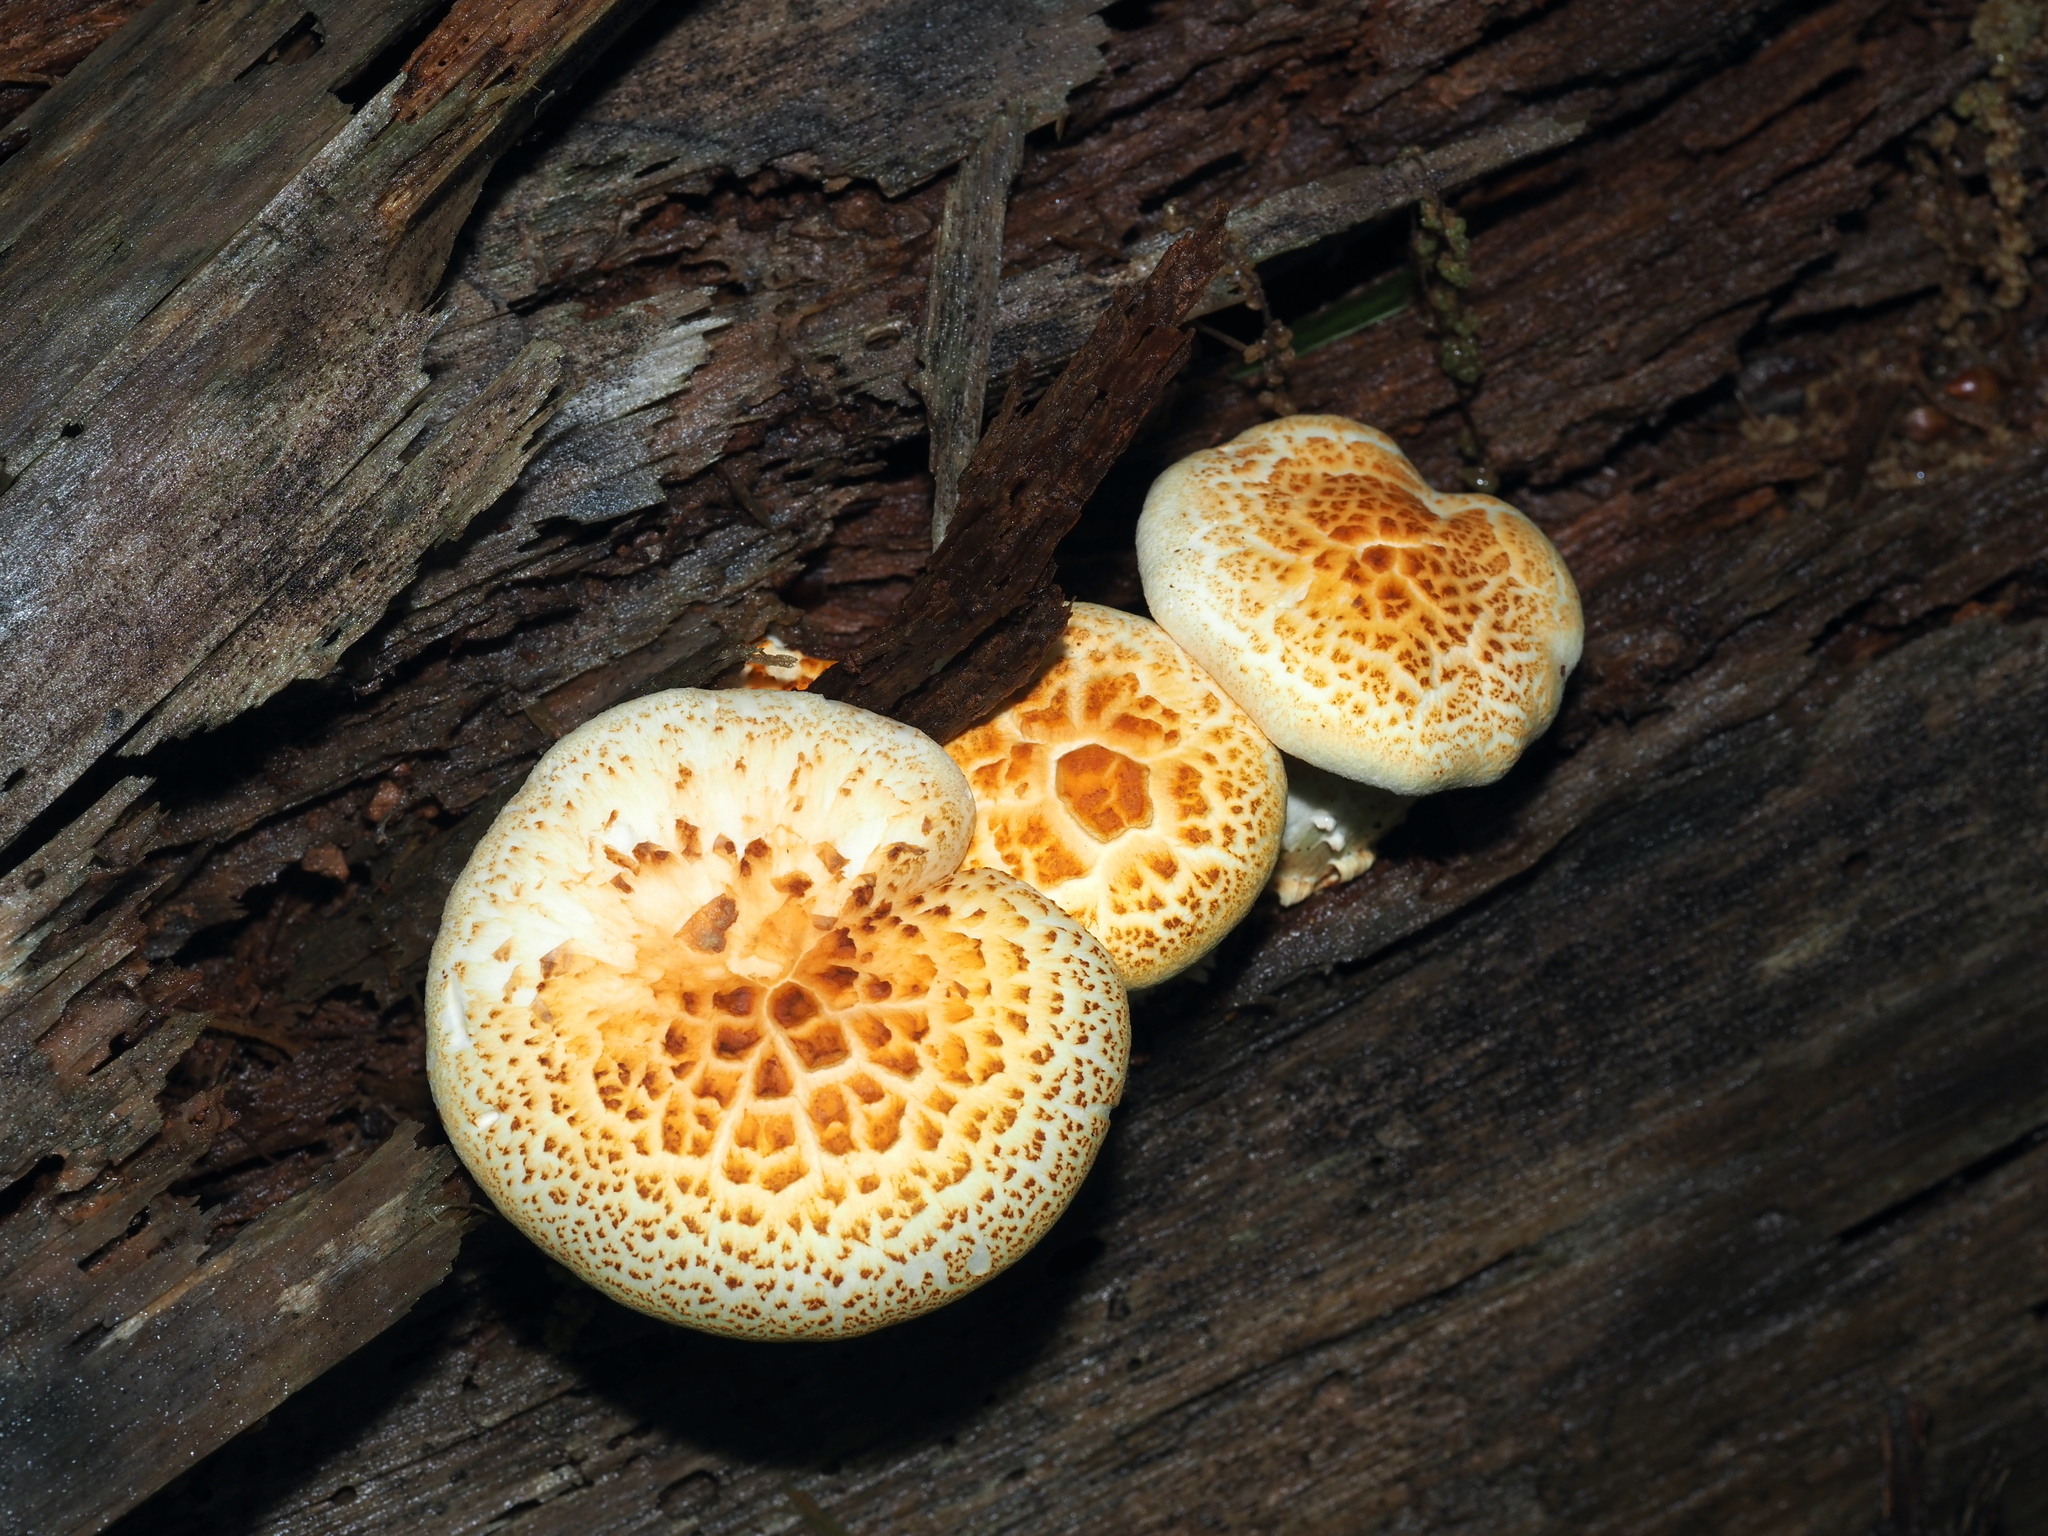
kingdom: Fungi
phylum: Basidiomycota
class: Agaricomycetes
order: Gloeophyllales
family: Gloeophyllaceae
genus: Neolentinus
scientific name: Neolentinus lepideus
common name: Scaly sawgill
